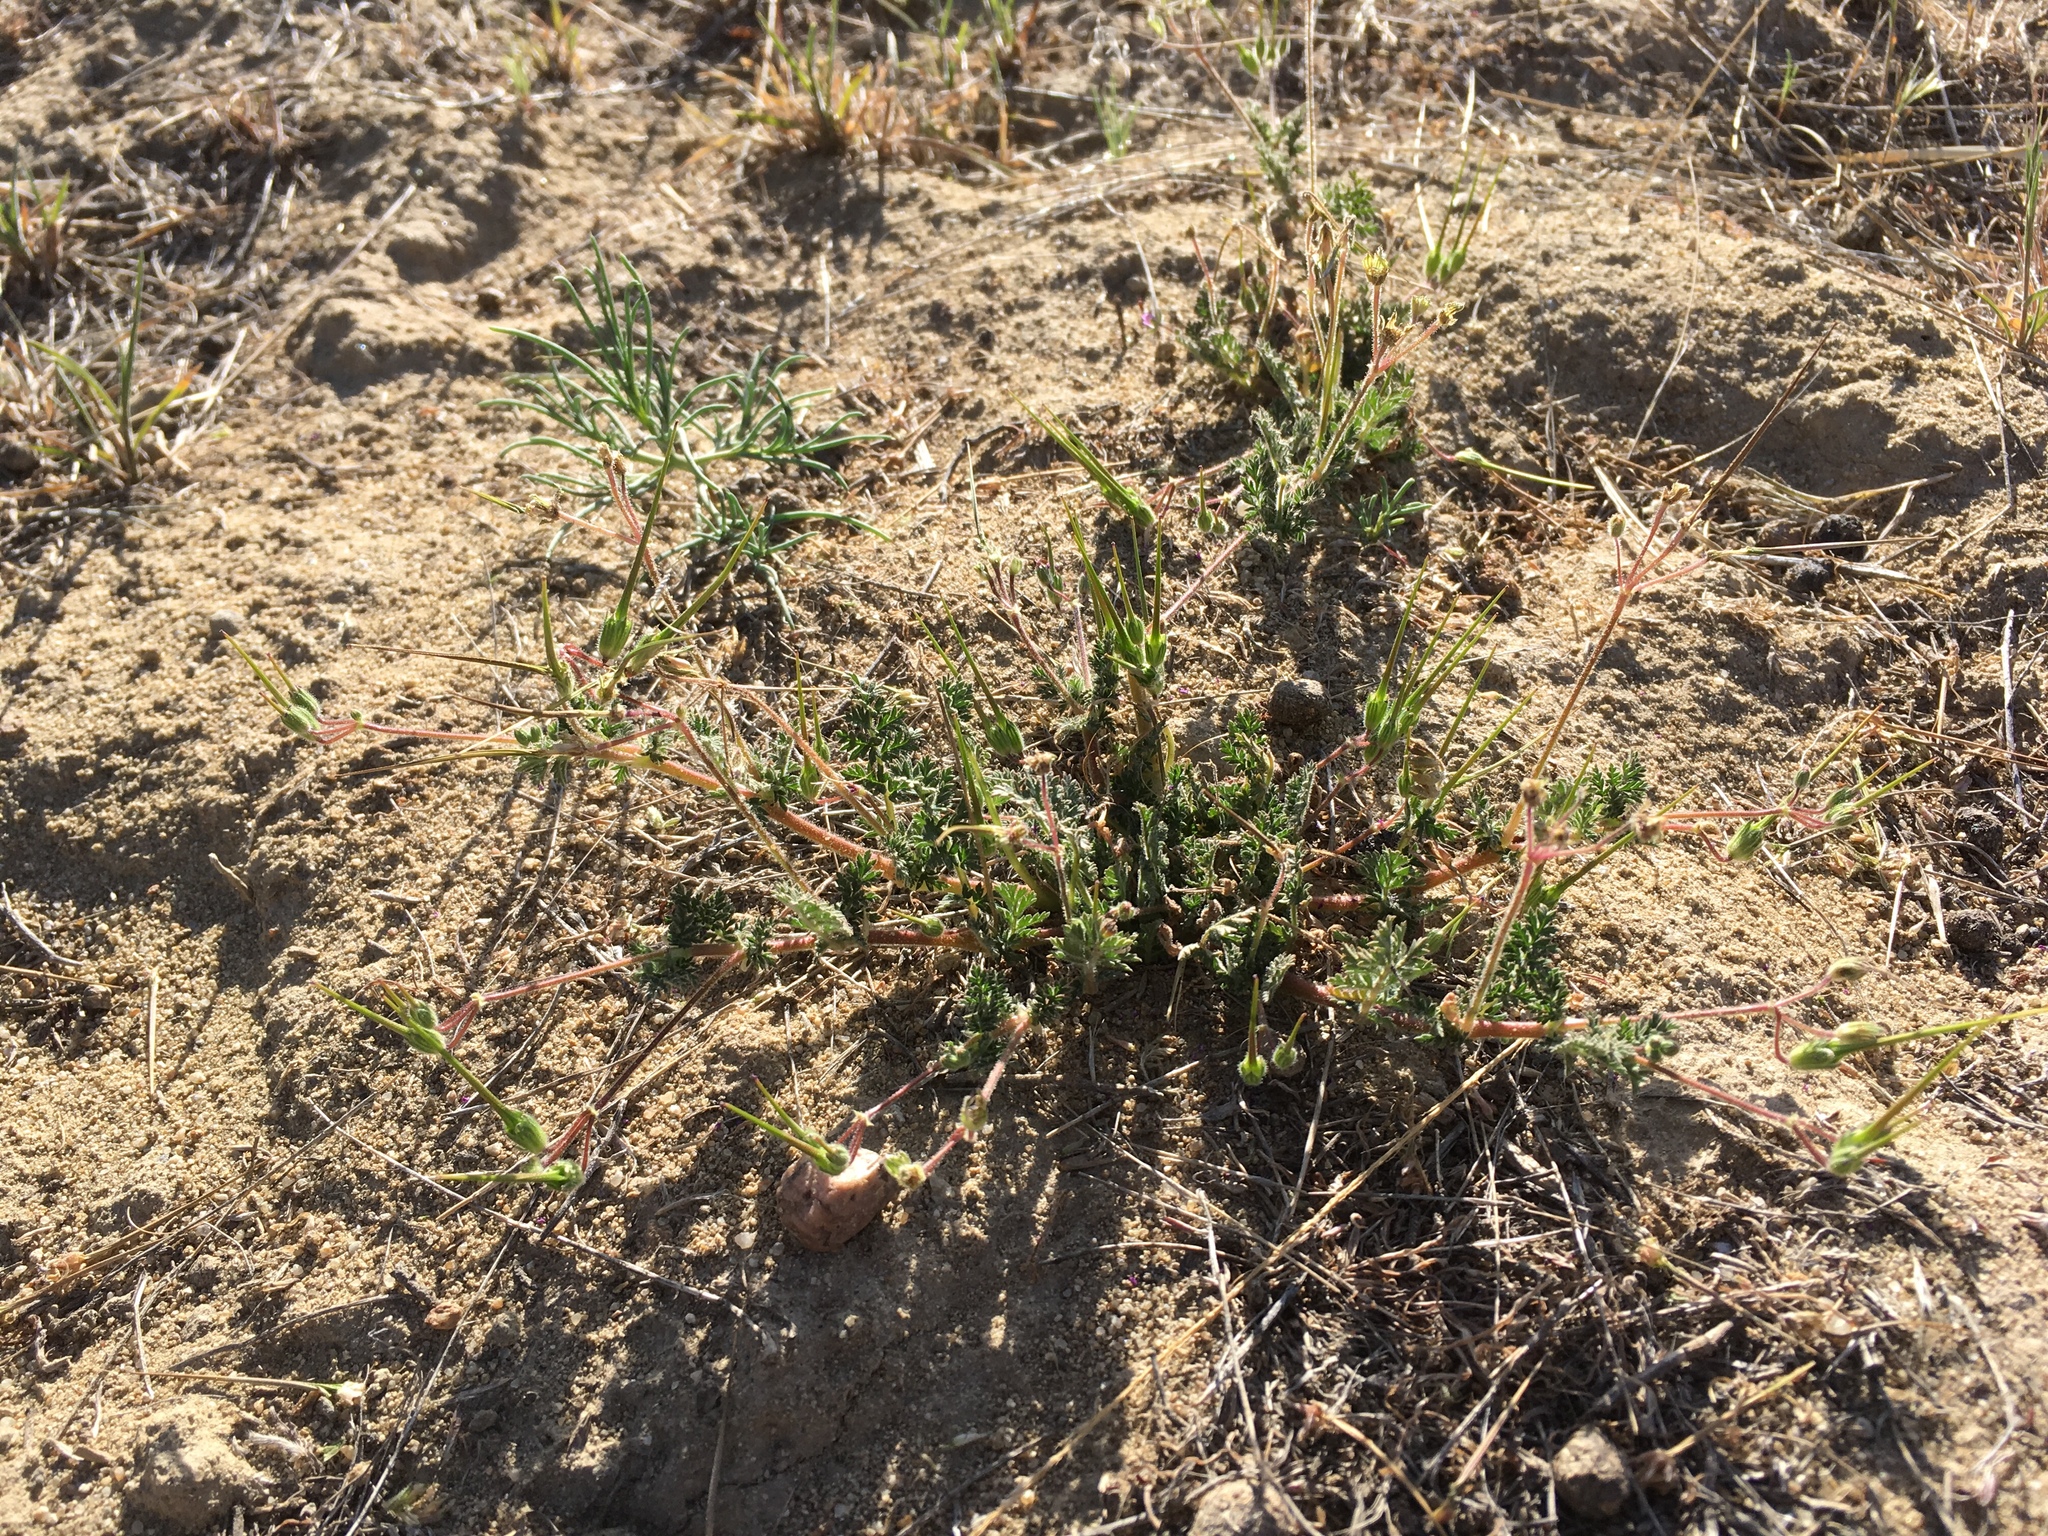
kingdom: Plantae
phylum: Tracheophyta
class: Magnoliopsida
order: Geraniales
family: Geraniaceae
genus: Erodium
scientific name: Erodium cicutarium
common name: Common stork's-bill
